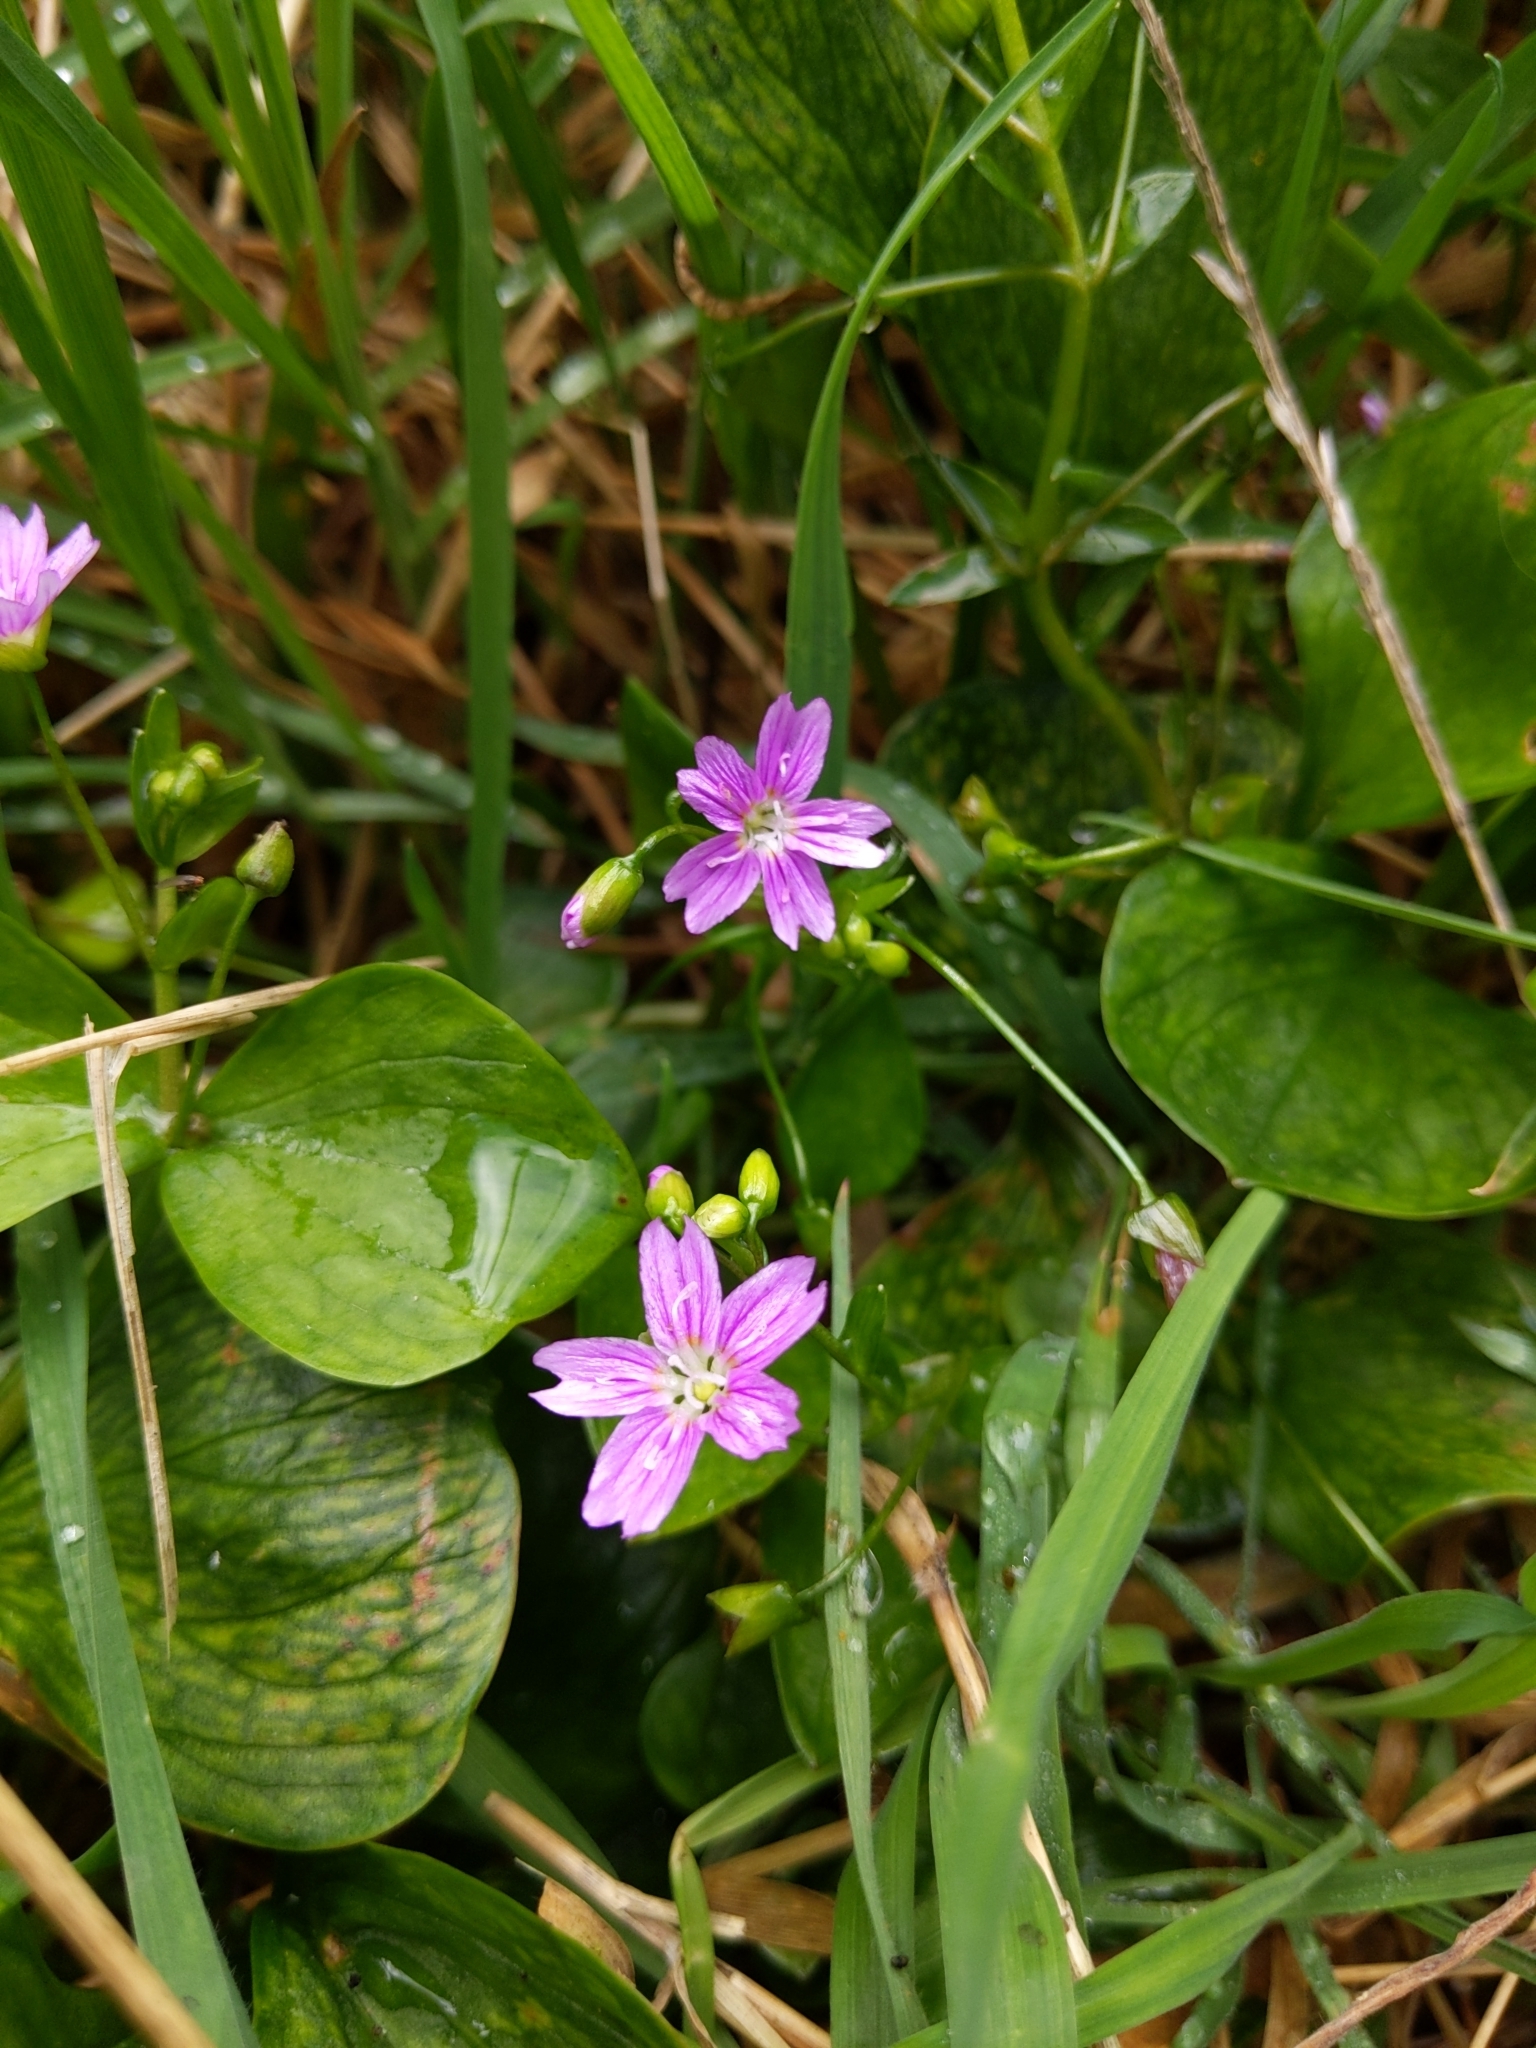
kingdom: Plantae
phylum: Tracheophyta
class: Magnoliopsida
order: Caryophyllales
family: Montiaceae
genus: Claytonia
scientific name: Claytonia sibirica
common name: Pink purslane
